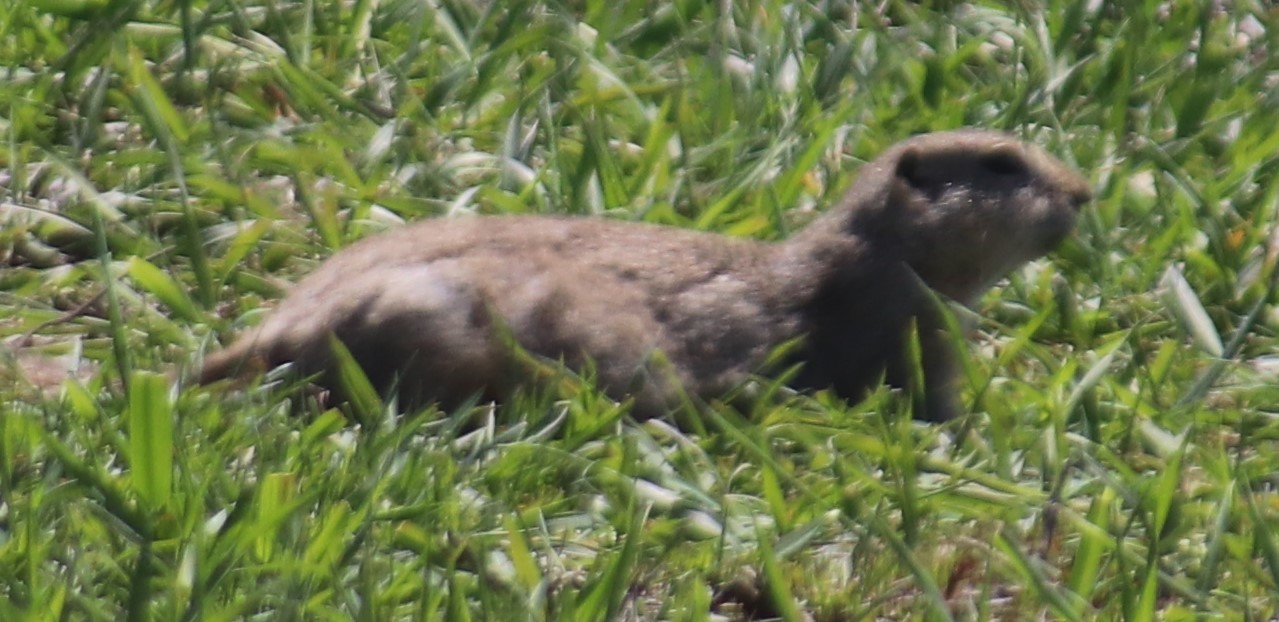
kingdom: Animalia
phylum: Chordata
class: Mammalia
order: Rodentia
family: Sciuridae
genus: Urocitellus
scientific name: Urocitellus richardsonii
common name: Richardson's ground squirrel
